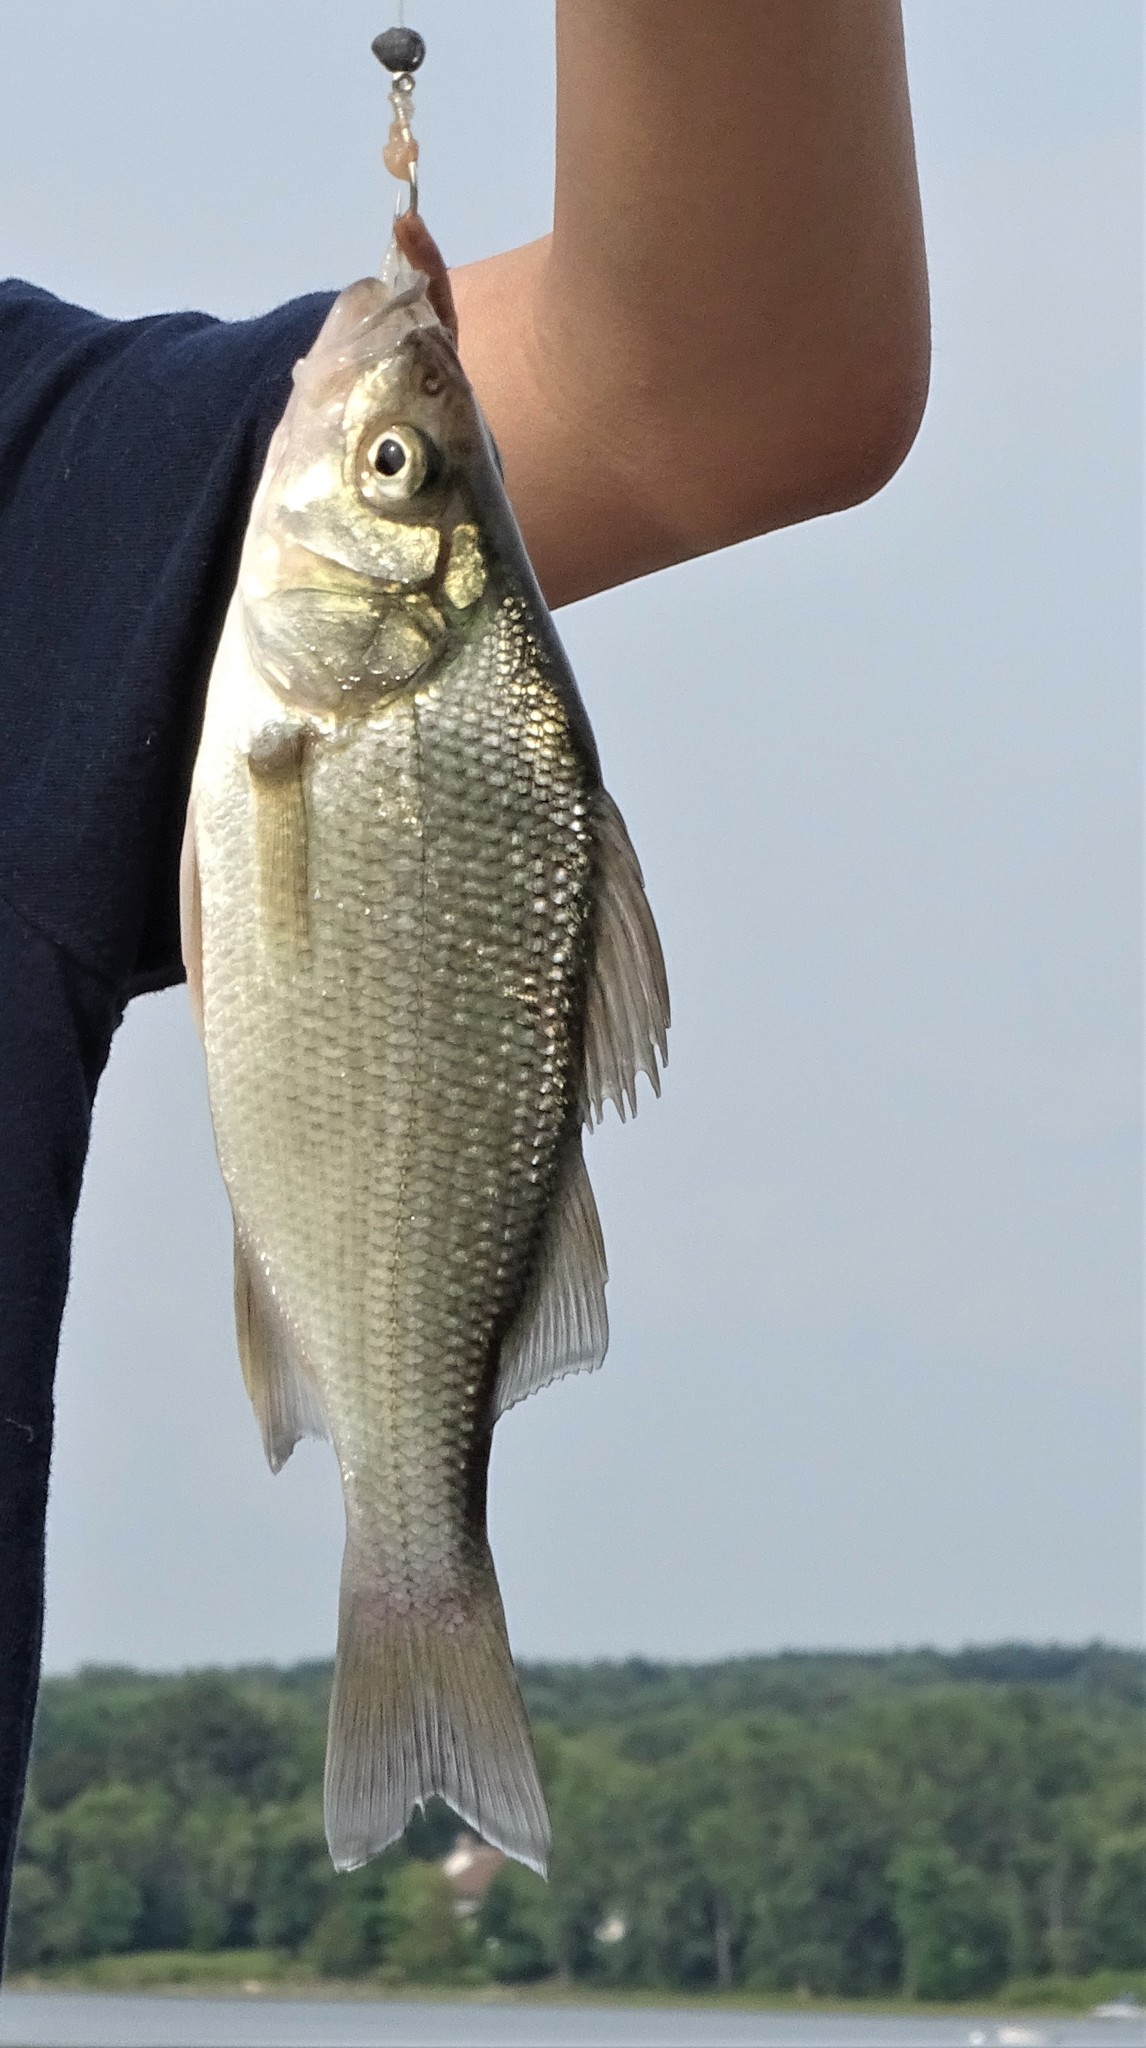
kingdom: Animalia
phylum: Chordata
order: Perciformes
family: Moronidae
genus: Morone
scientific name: Morone americana
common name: White perch
